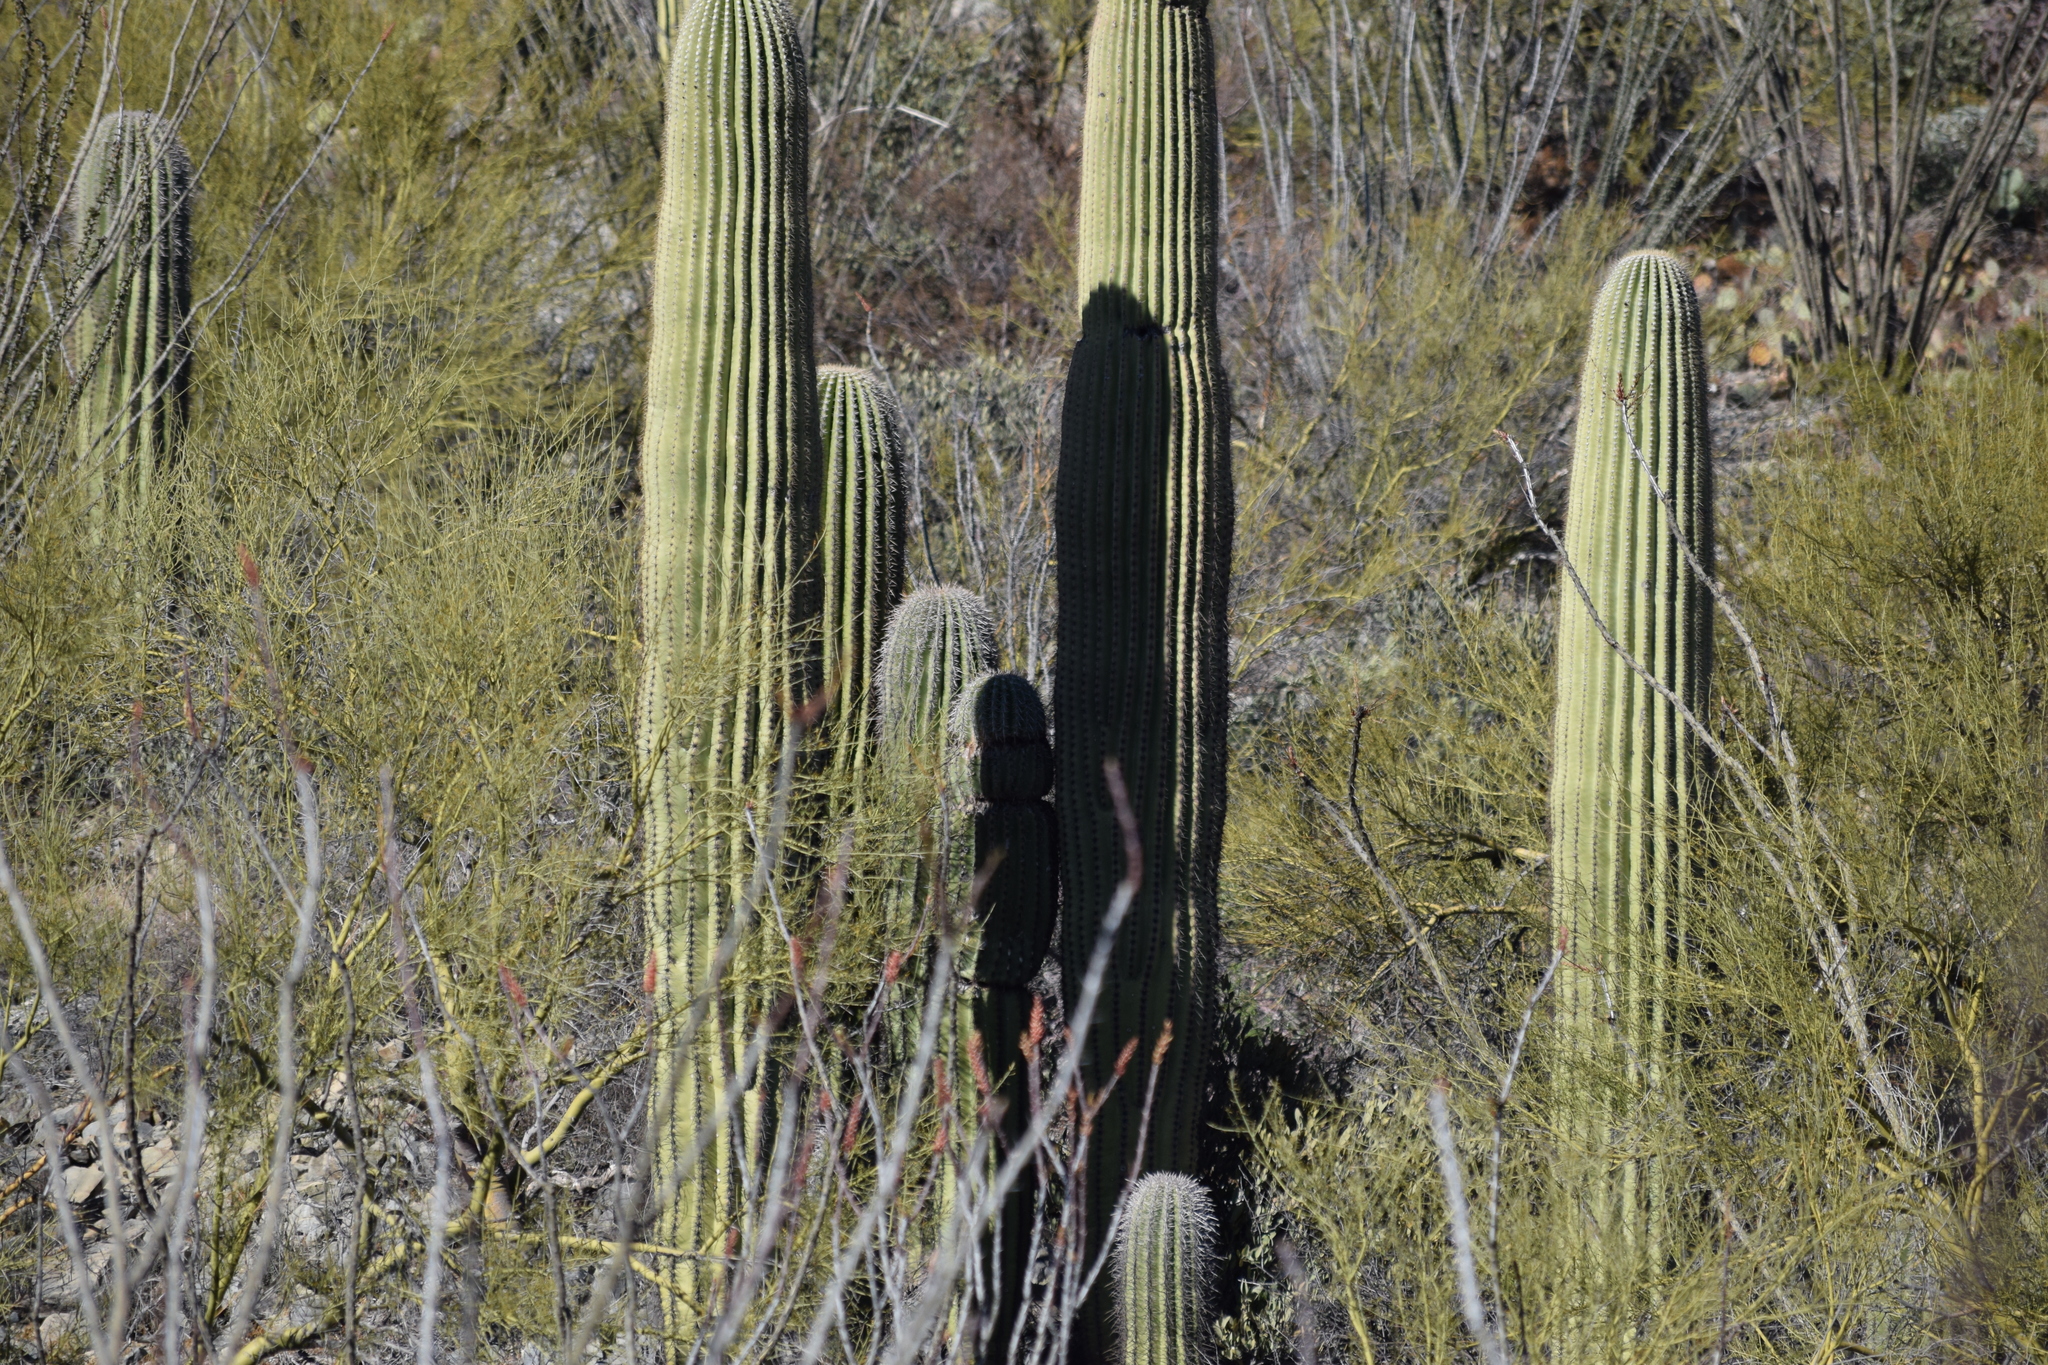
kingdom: Plantae
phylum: Tracheophyta
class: Magnoliopsida
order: Caryophyllales
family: Cactaceae
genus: Carnegiea
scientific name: Carnegiea gigantea
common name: Saguaro
